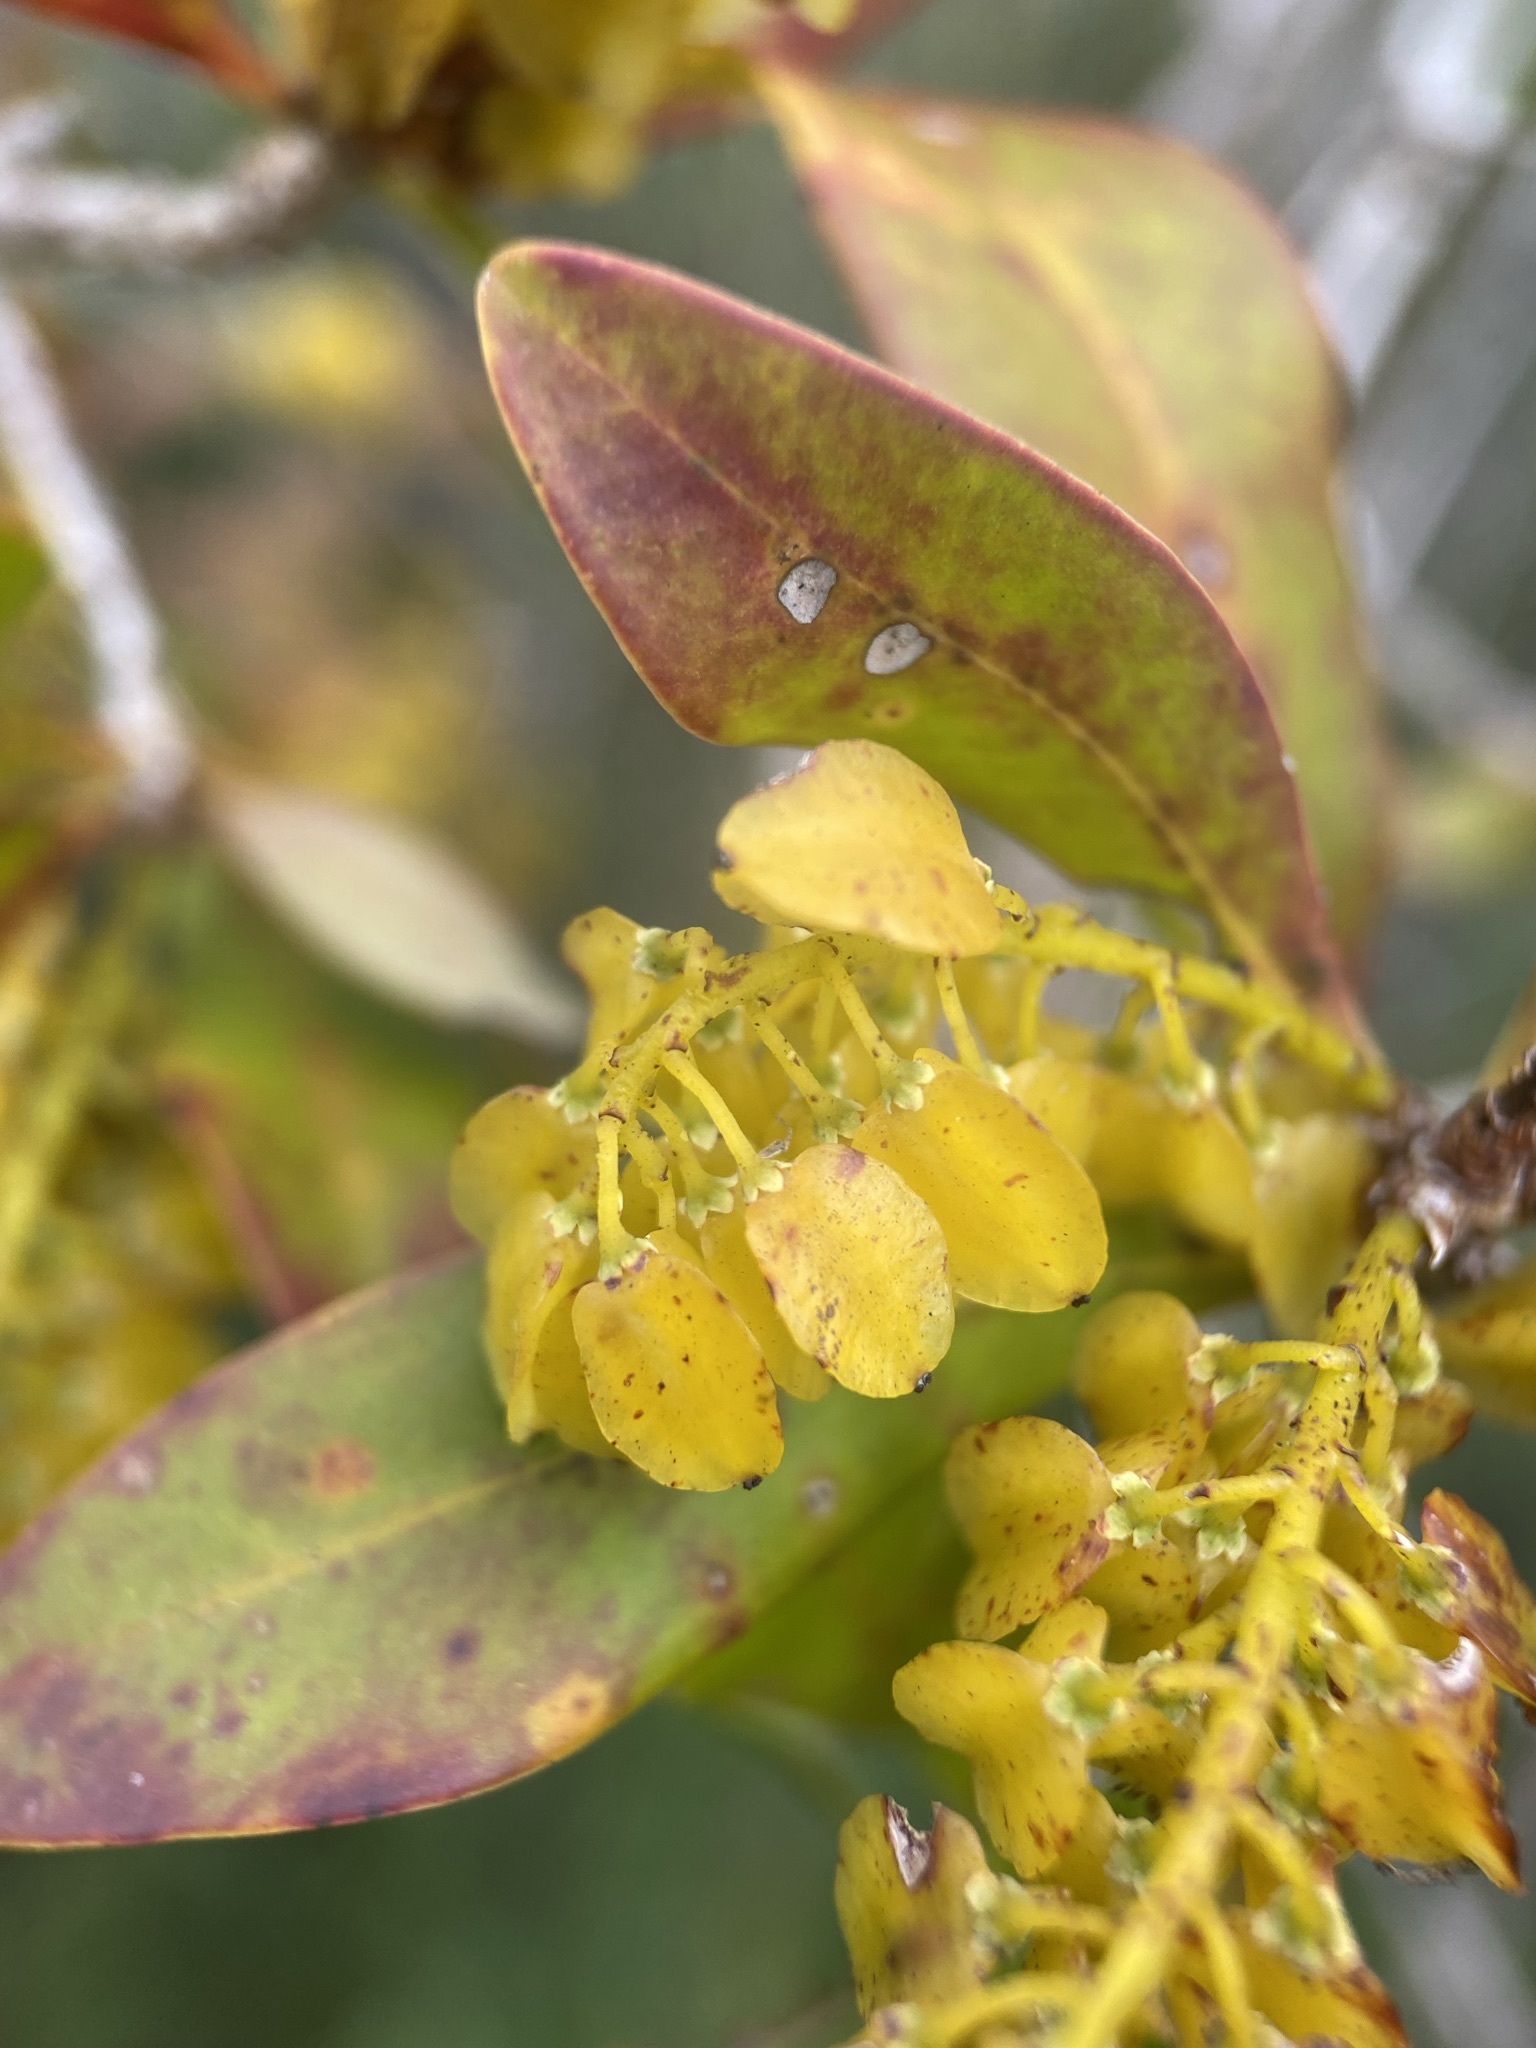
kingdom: Plantae
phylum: Tracheophyta
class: Magnoliopsida
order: Ericales
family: Cyrillaceae
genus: Cliftonia
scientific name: Cliftonia monophylla
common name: Titi
